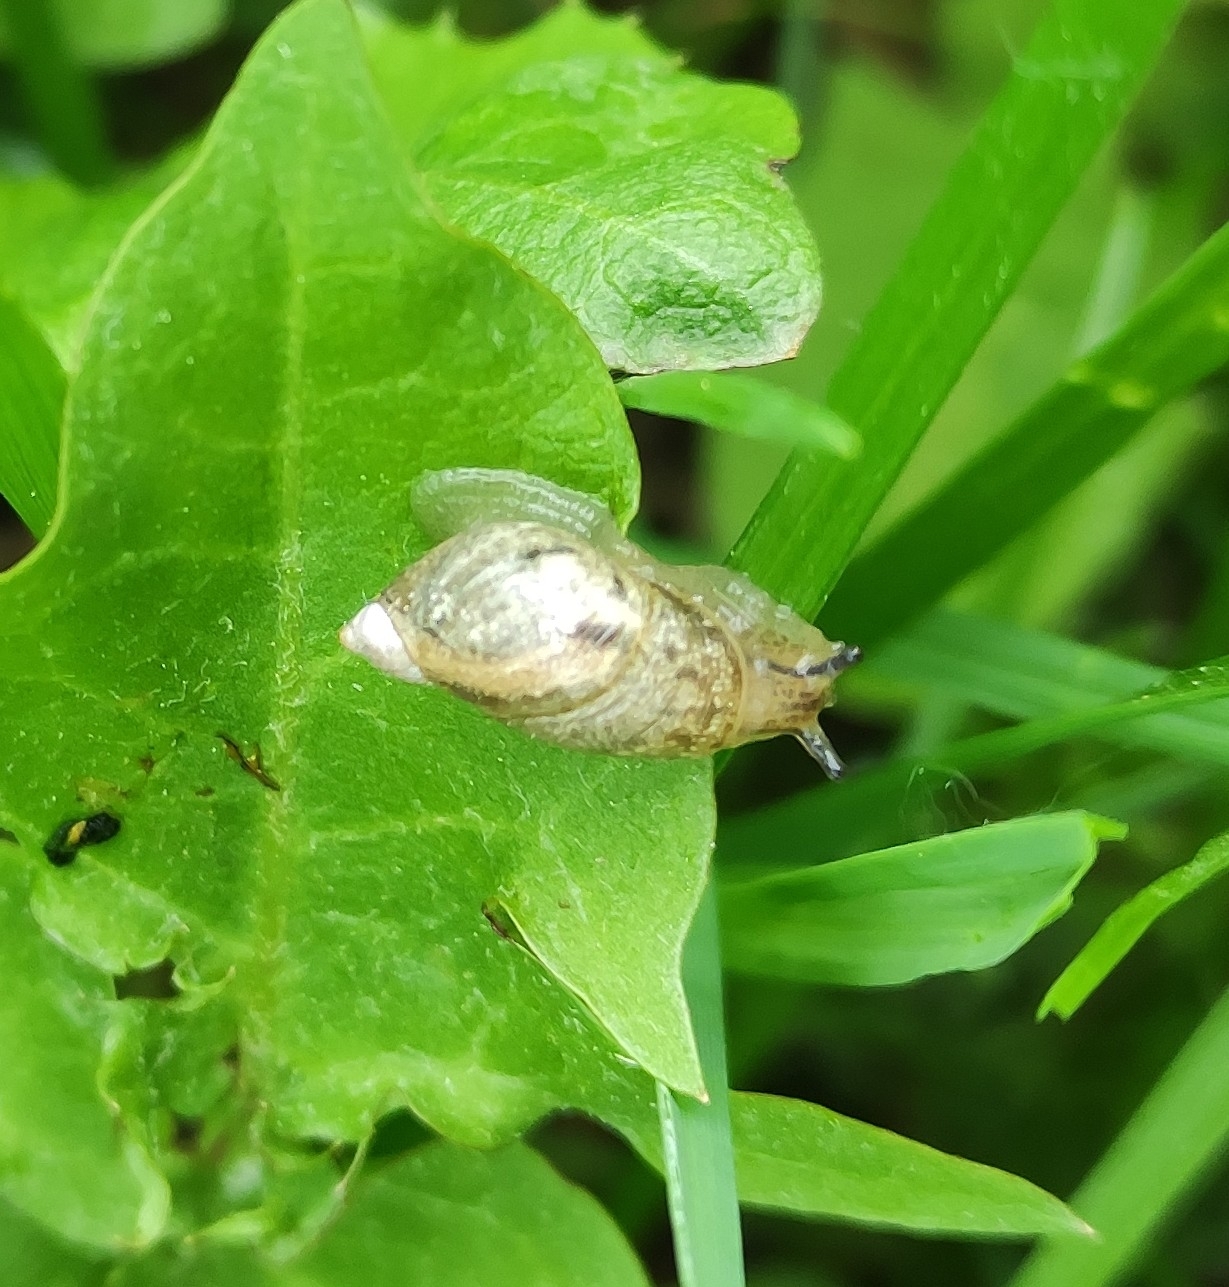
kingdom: Animalia
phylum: Mollusca
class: Gastropoda
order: Stylommatophora
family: Succineidae
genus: Succinea
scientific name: Succinea putris
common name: European ambersnail
